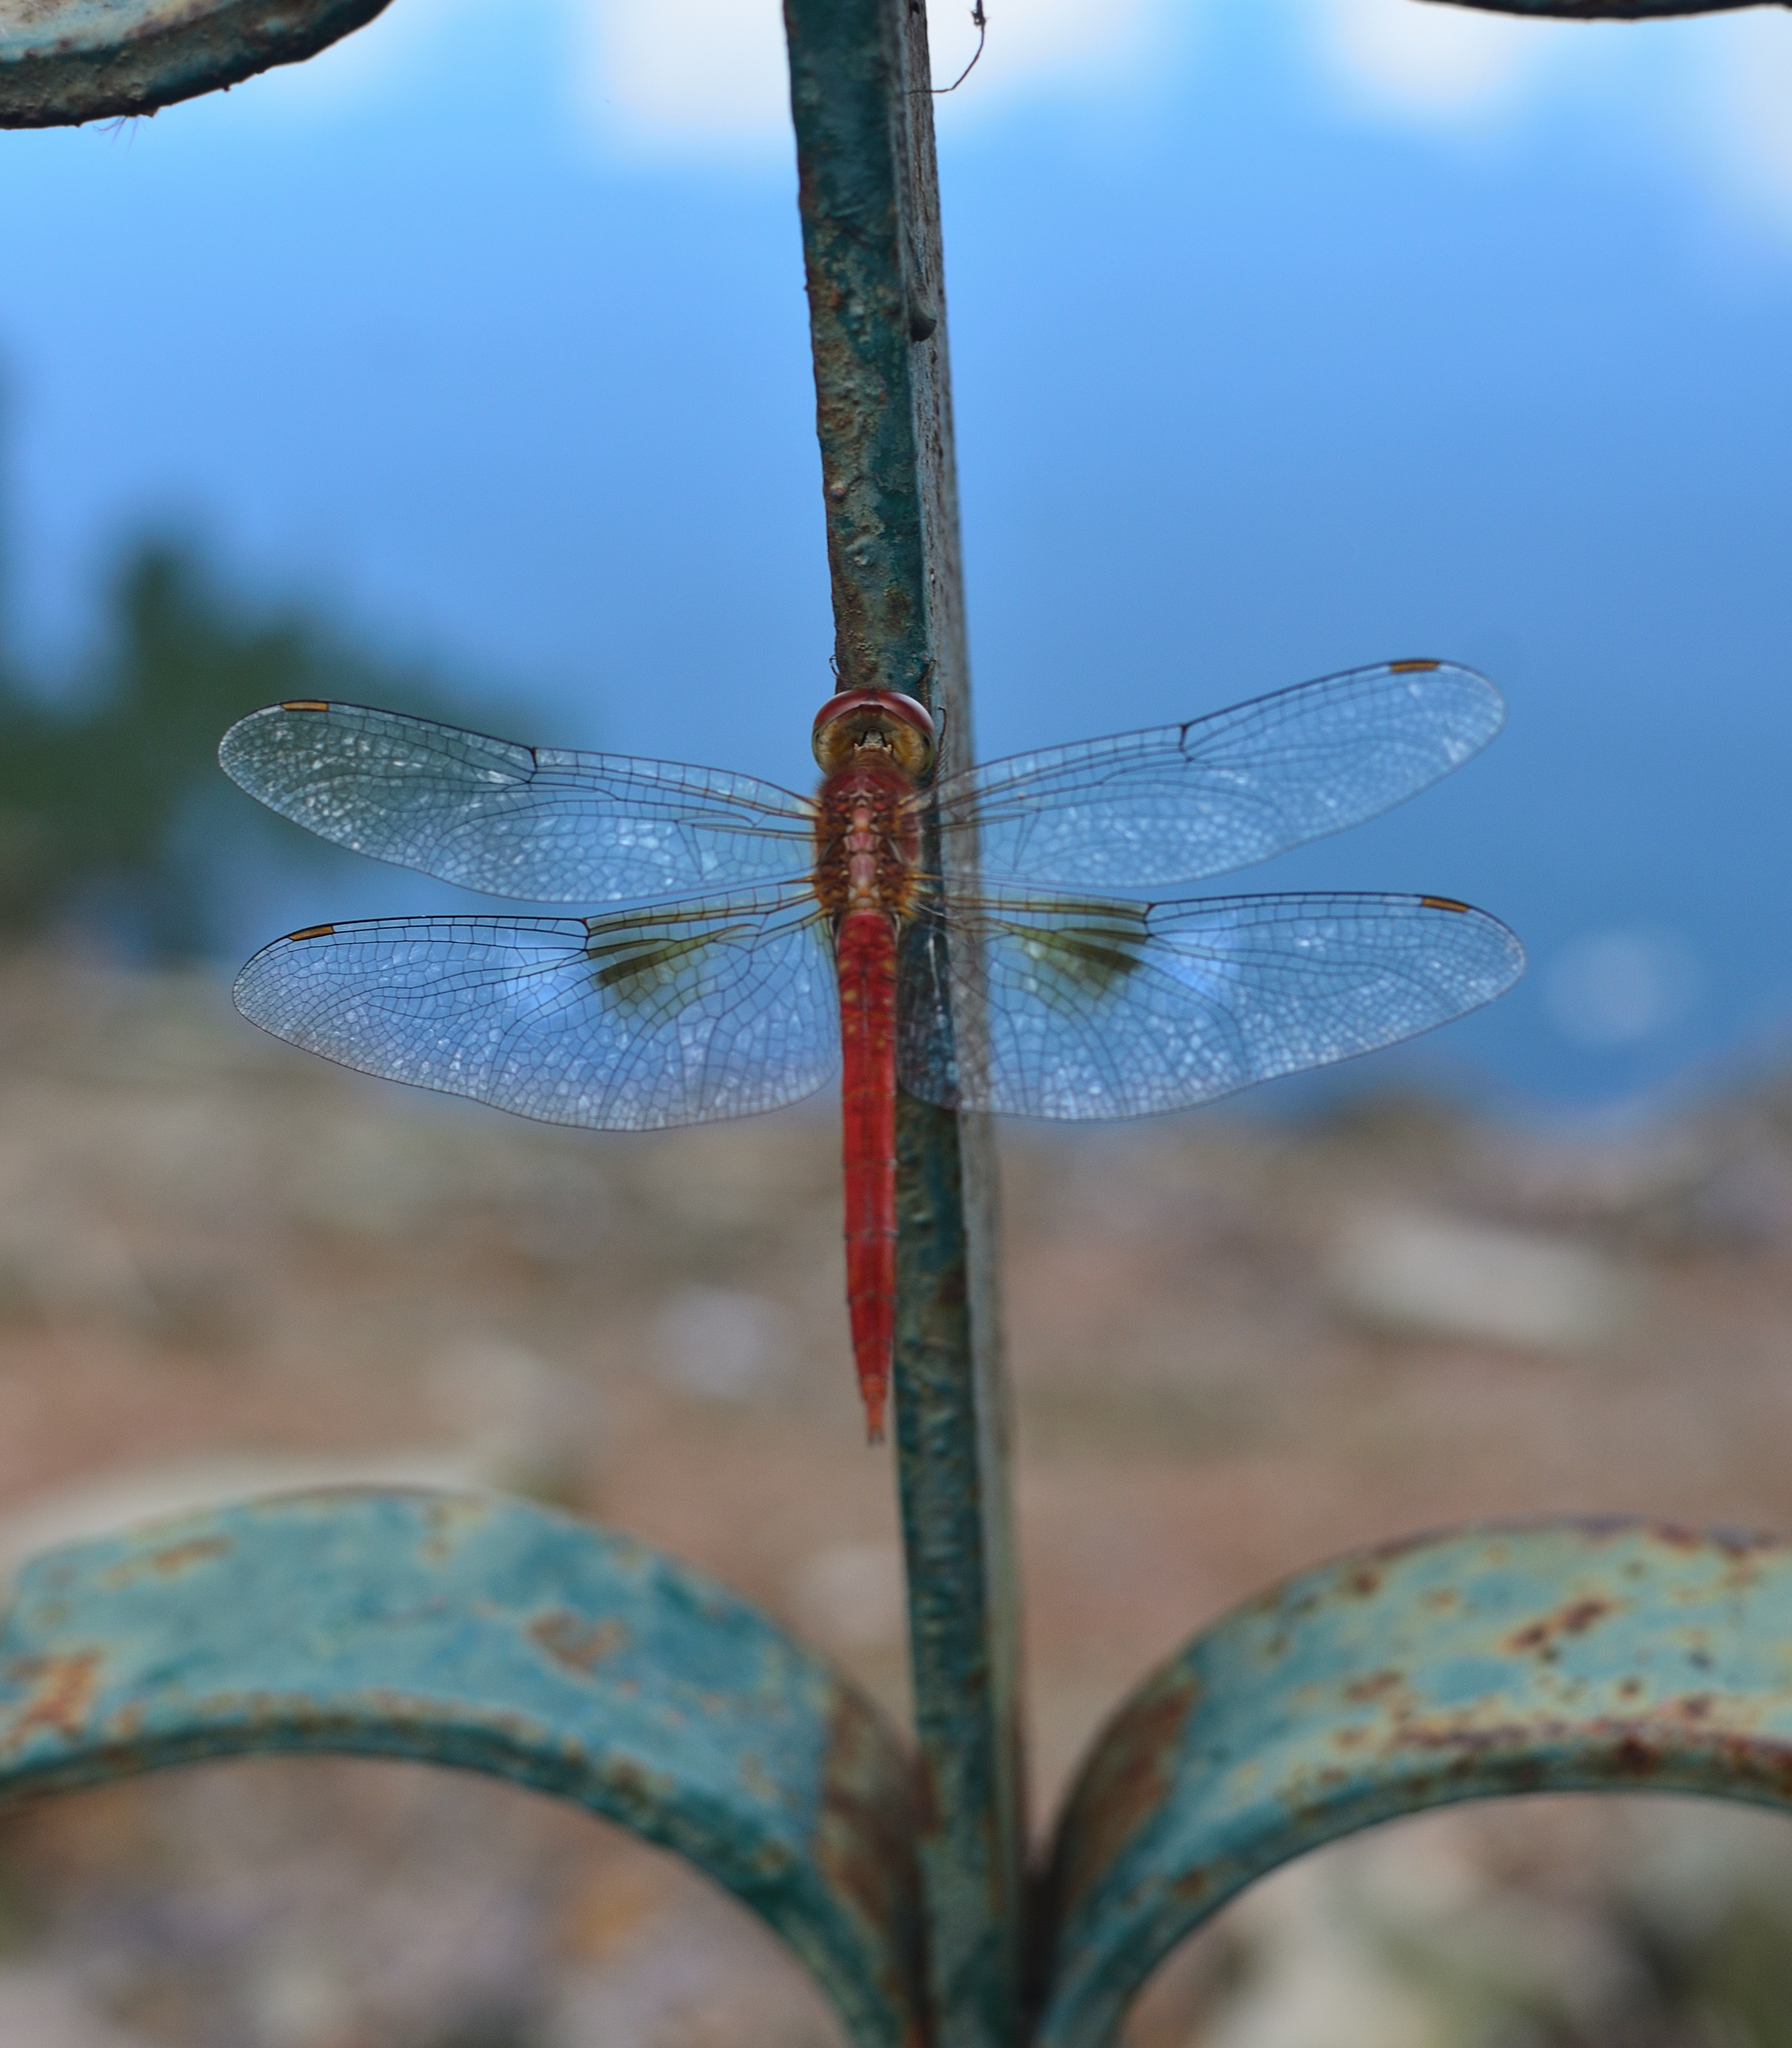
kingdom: Animalia
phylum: Arthropoda
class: Insecta
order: Odonata
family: Libellulidae
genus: Tholymis
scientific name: Tholymis tillarga
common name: Coral-tailed cloud wing
